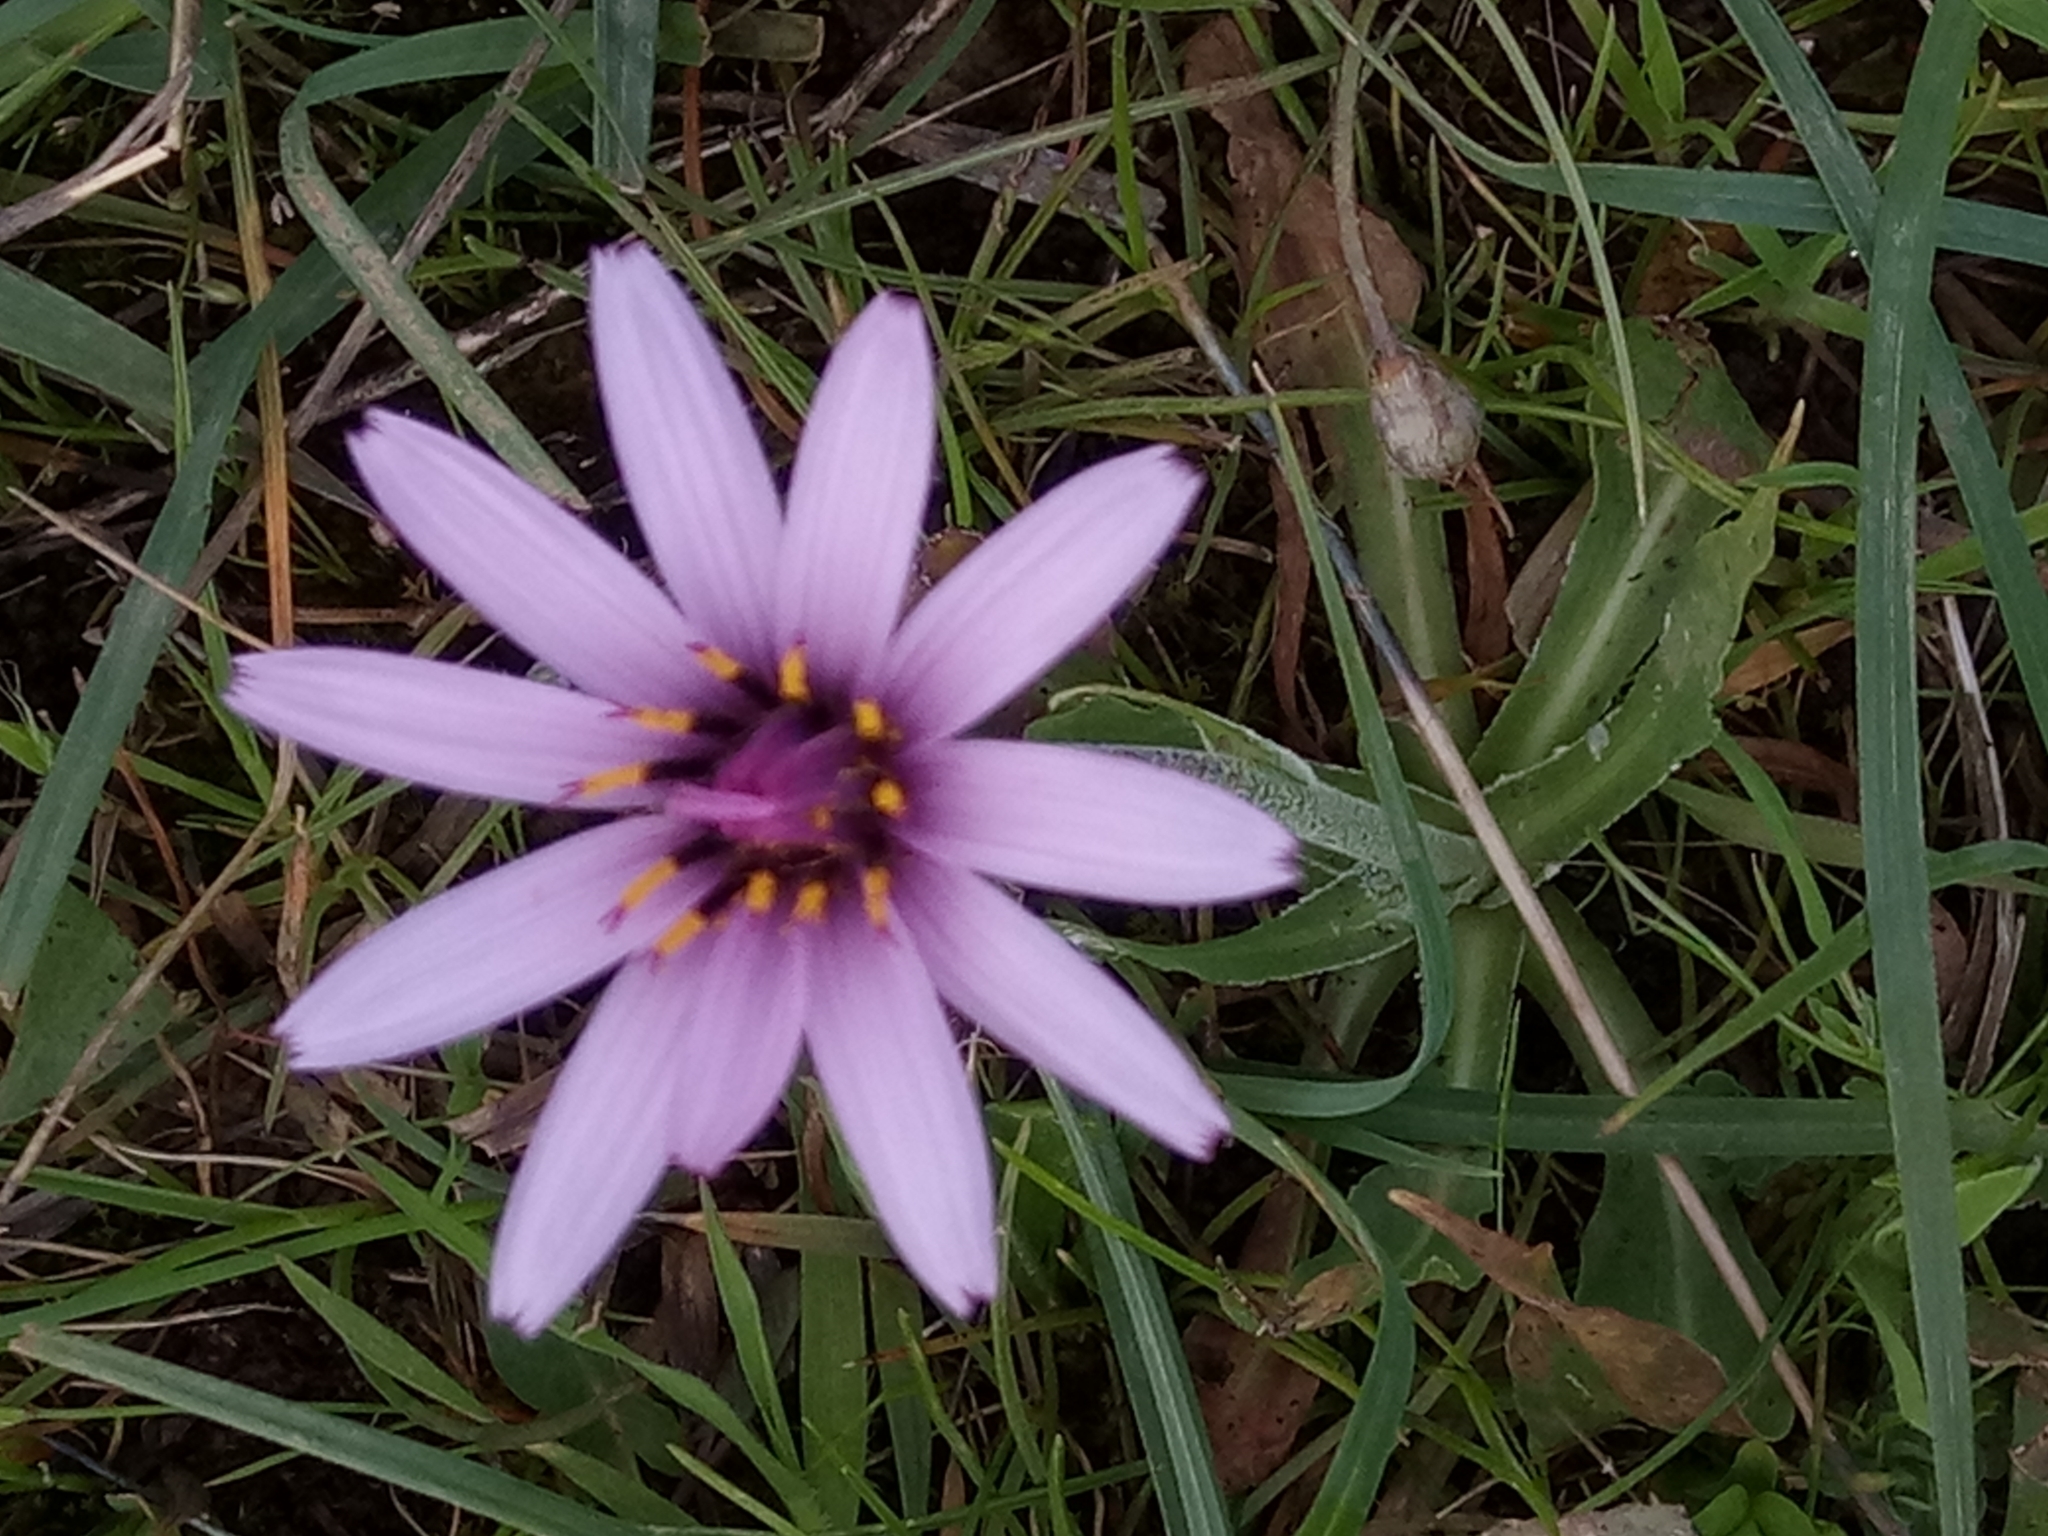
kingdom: Plantae
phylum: Tracheophyta
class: Magnoliopsida
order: Asterales
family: Asteraceae
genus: Dimorphotheca
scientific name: Dimorphotheca fruticosa
